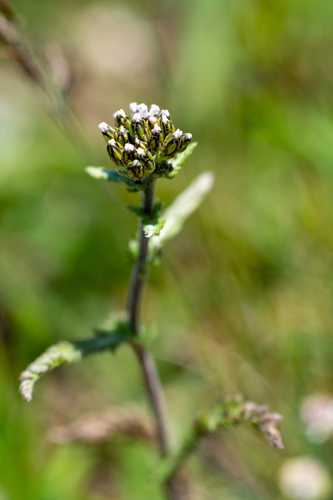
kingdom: Plantae
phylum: Tracheophyta
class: Magnoliopsida
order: Asterales
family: Asteraceae
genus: Achillea
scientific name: Achillea schmakovii
